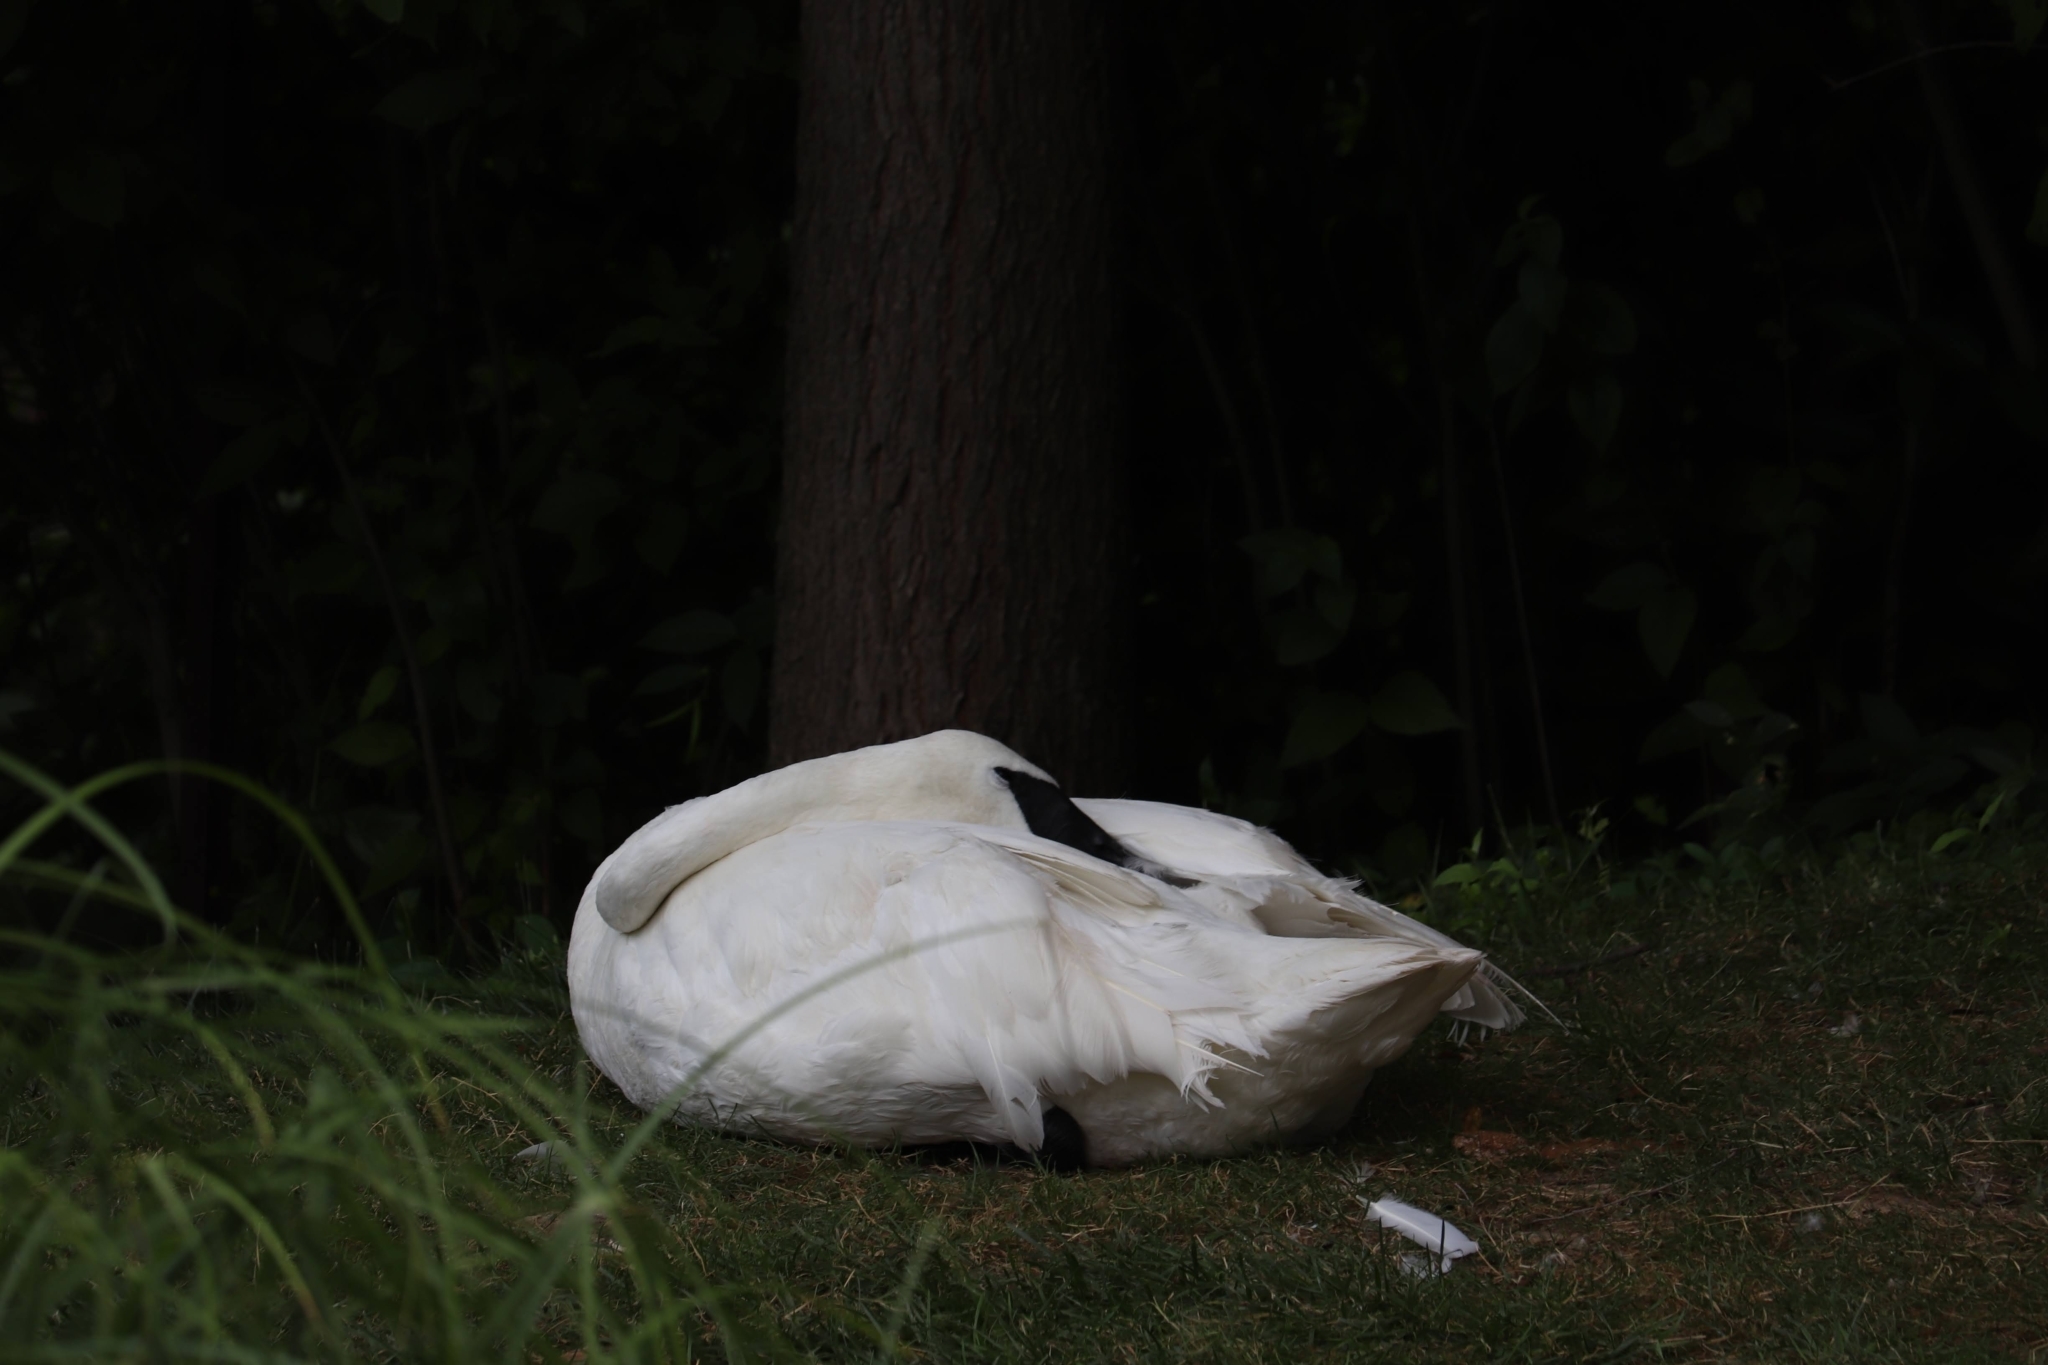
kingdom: Animalia
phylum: Chordata
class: Aves
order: Anseriformes
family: Anatidae
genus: Cygnus
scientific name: Cygnus buccinator
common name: Trumpeter swan
